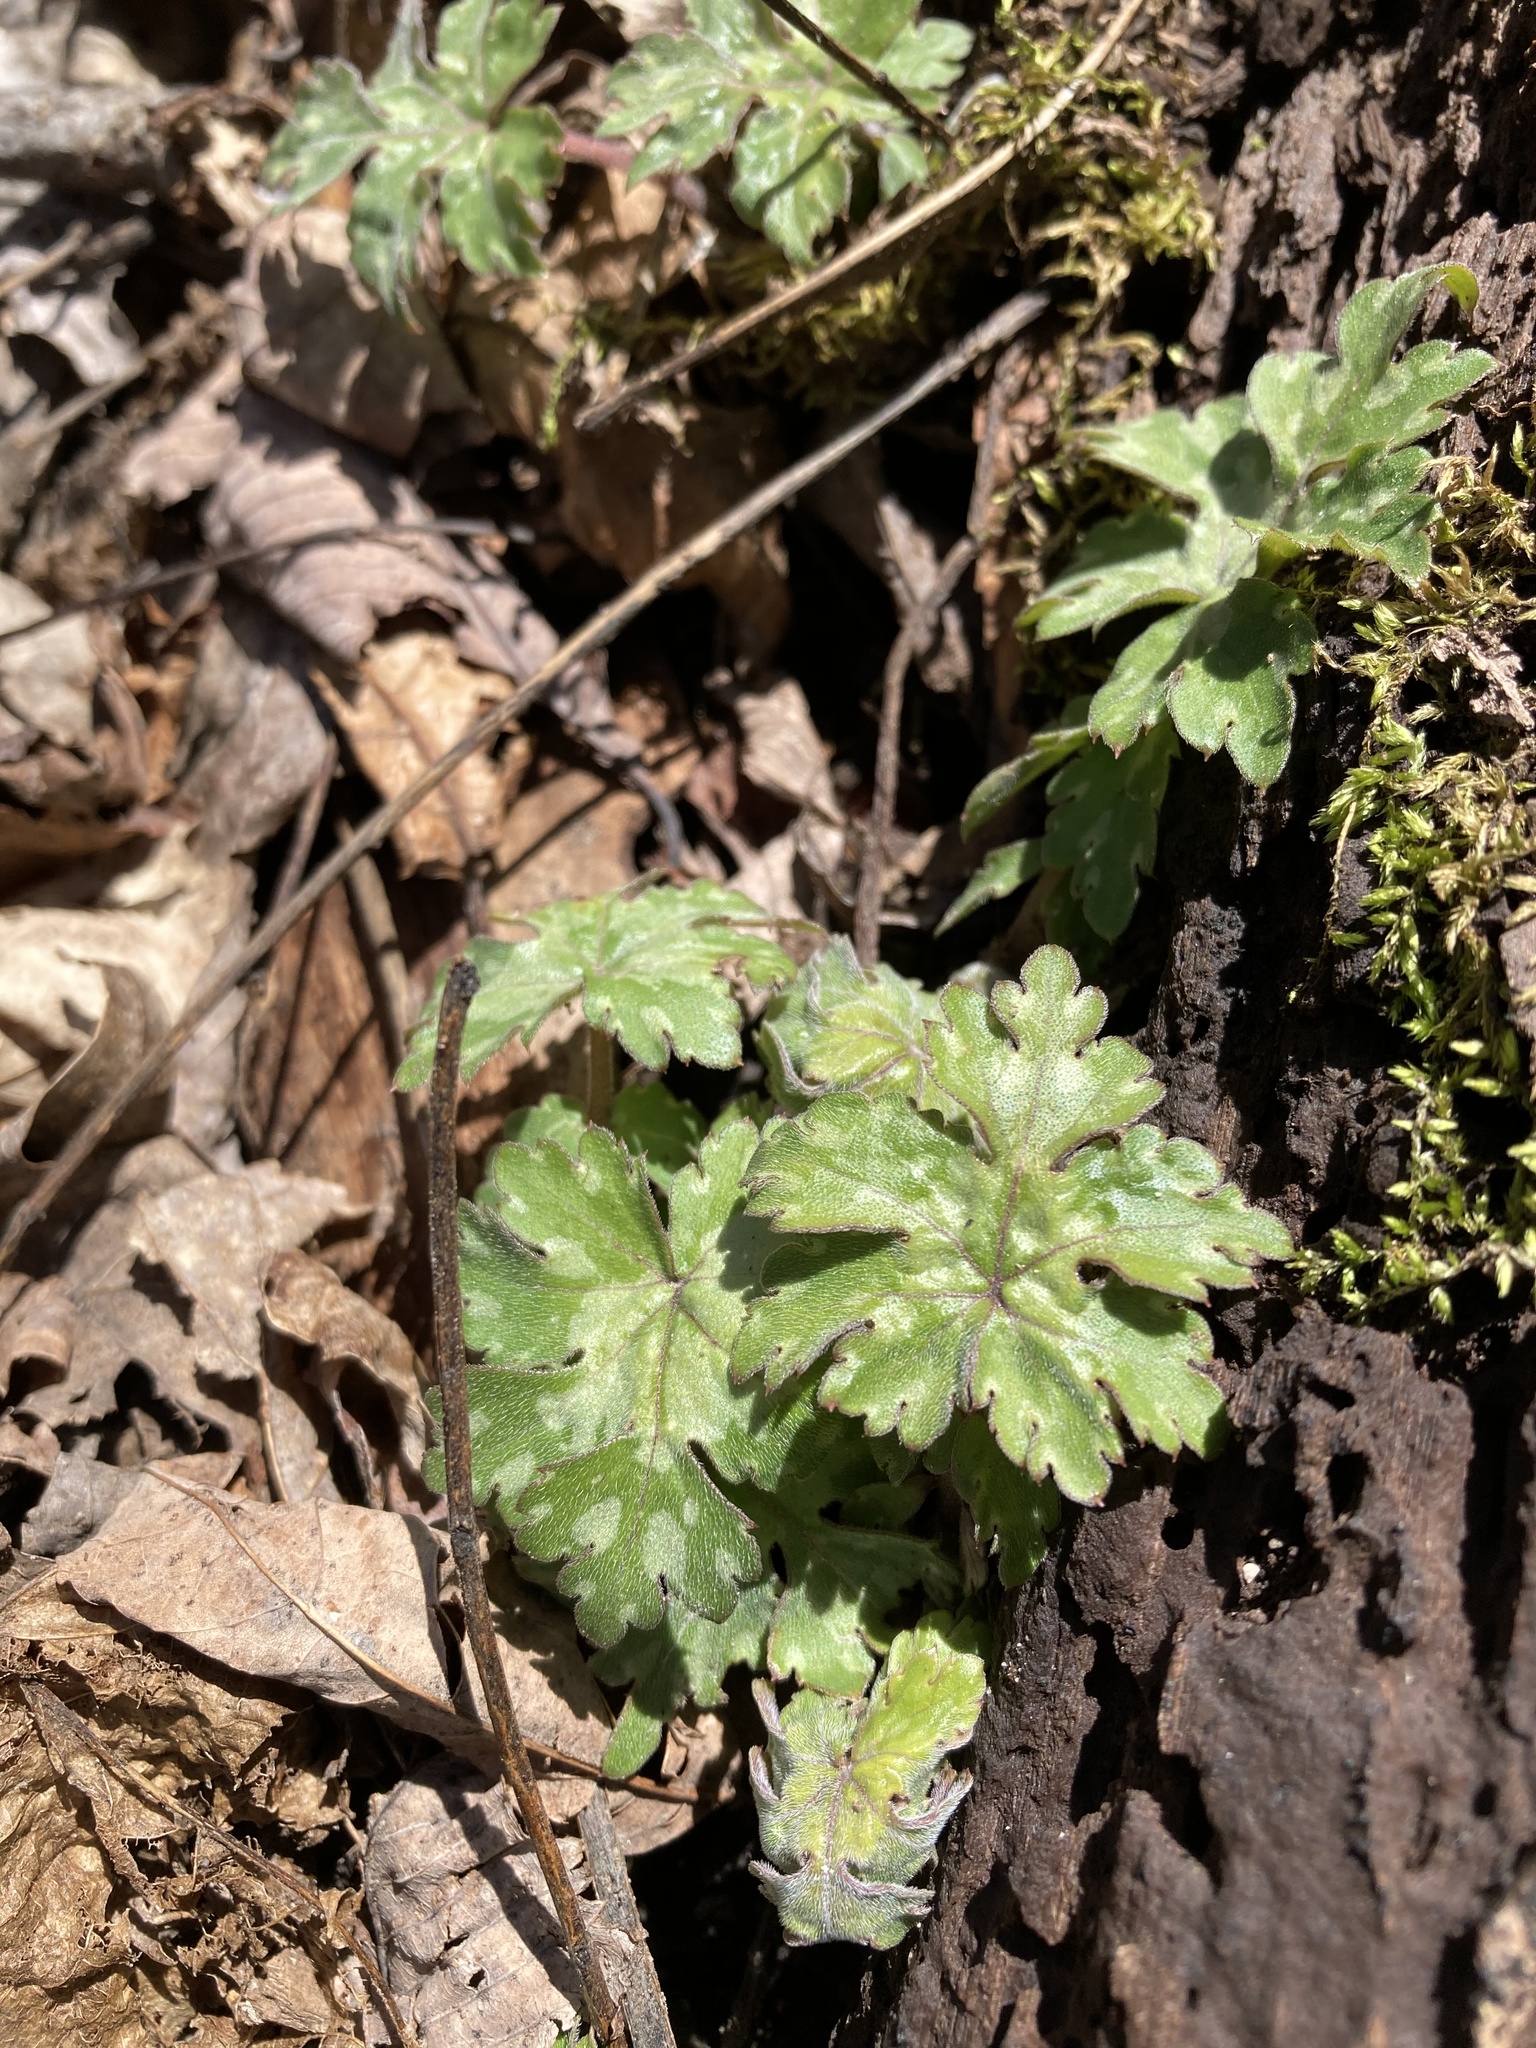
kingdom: Plantae
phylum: Tracheophyta
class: Magnoliopsida
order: Boraginales
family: Hydrophyllaceae
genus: Hydrophyllum
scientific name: Hydrophyllum canadense
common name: Canada waterleaf
